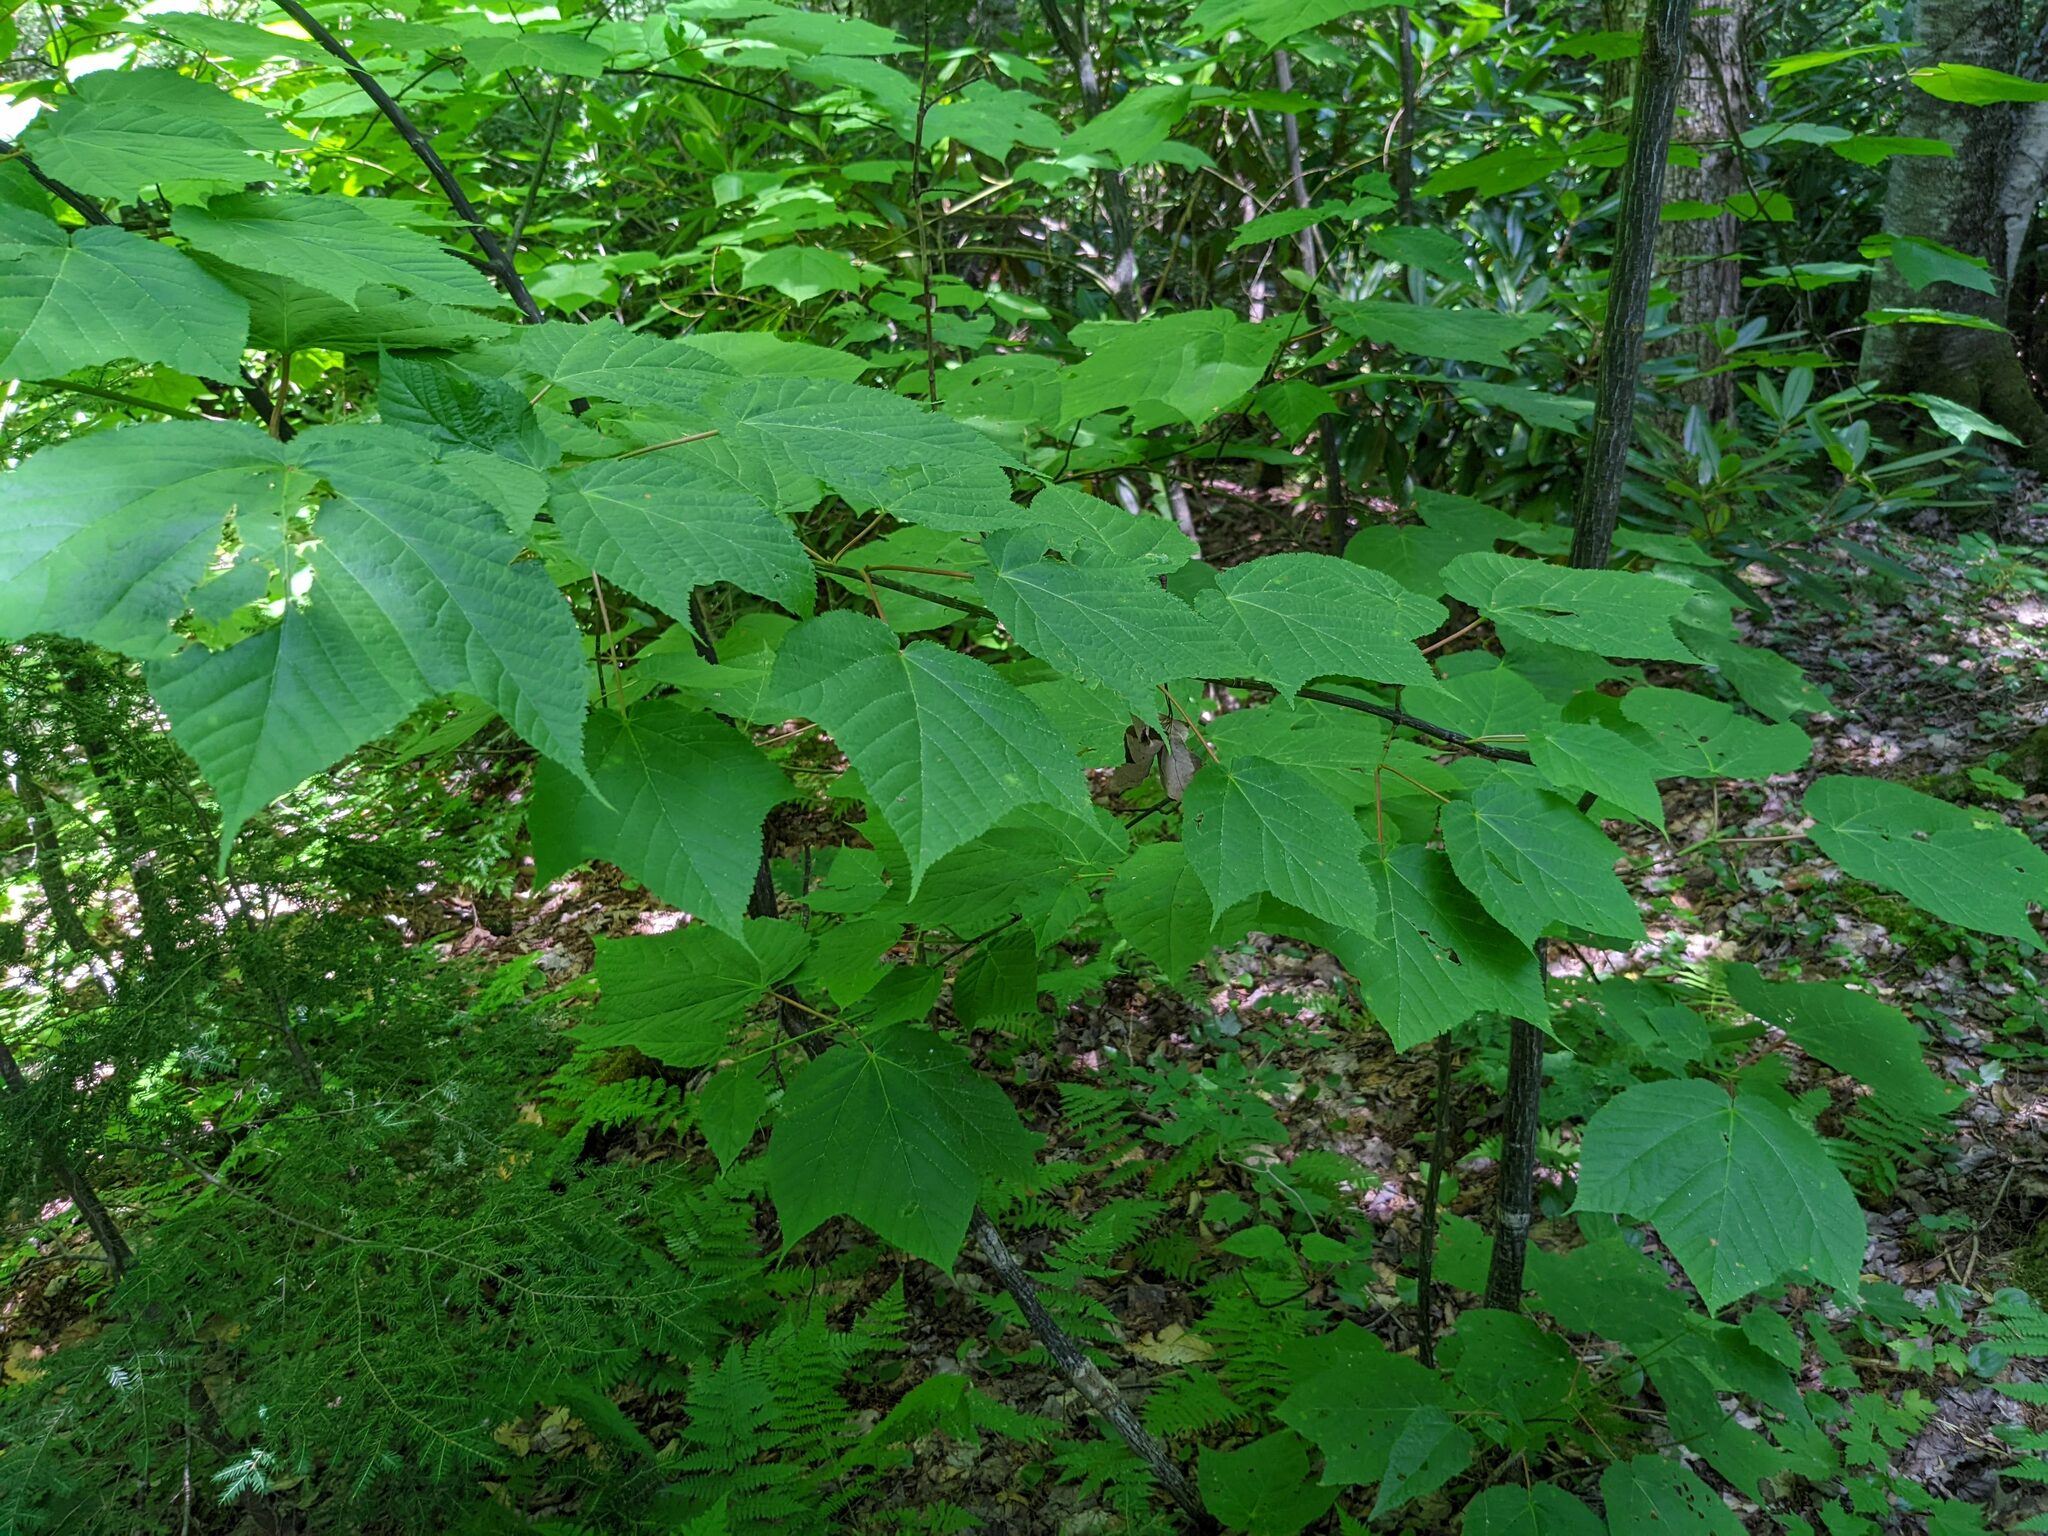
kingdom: Plantae
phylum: Tracheophyta
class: Magnoliopsida
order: Sapindales
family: Sapindaceae
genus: Acer
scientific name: Acer pensylvanicum
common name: Moosewood
